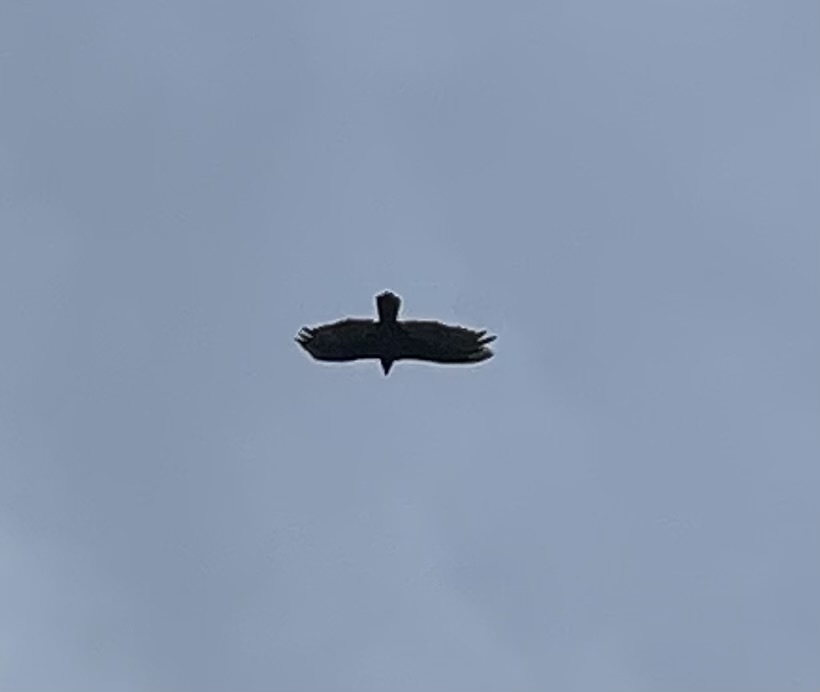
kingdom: Animalia
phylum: Chordata
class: Aves
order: Accipitriformes
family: Cathartidae
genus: Cathartes
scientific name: Cathartes aura
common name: Turkey vulture
